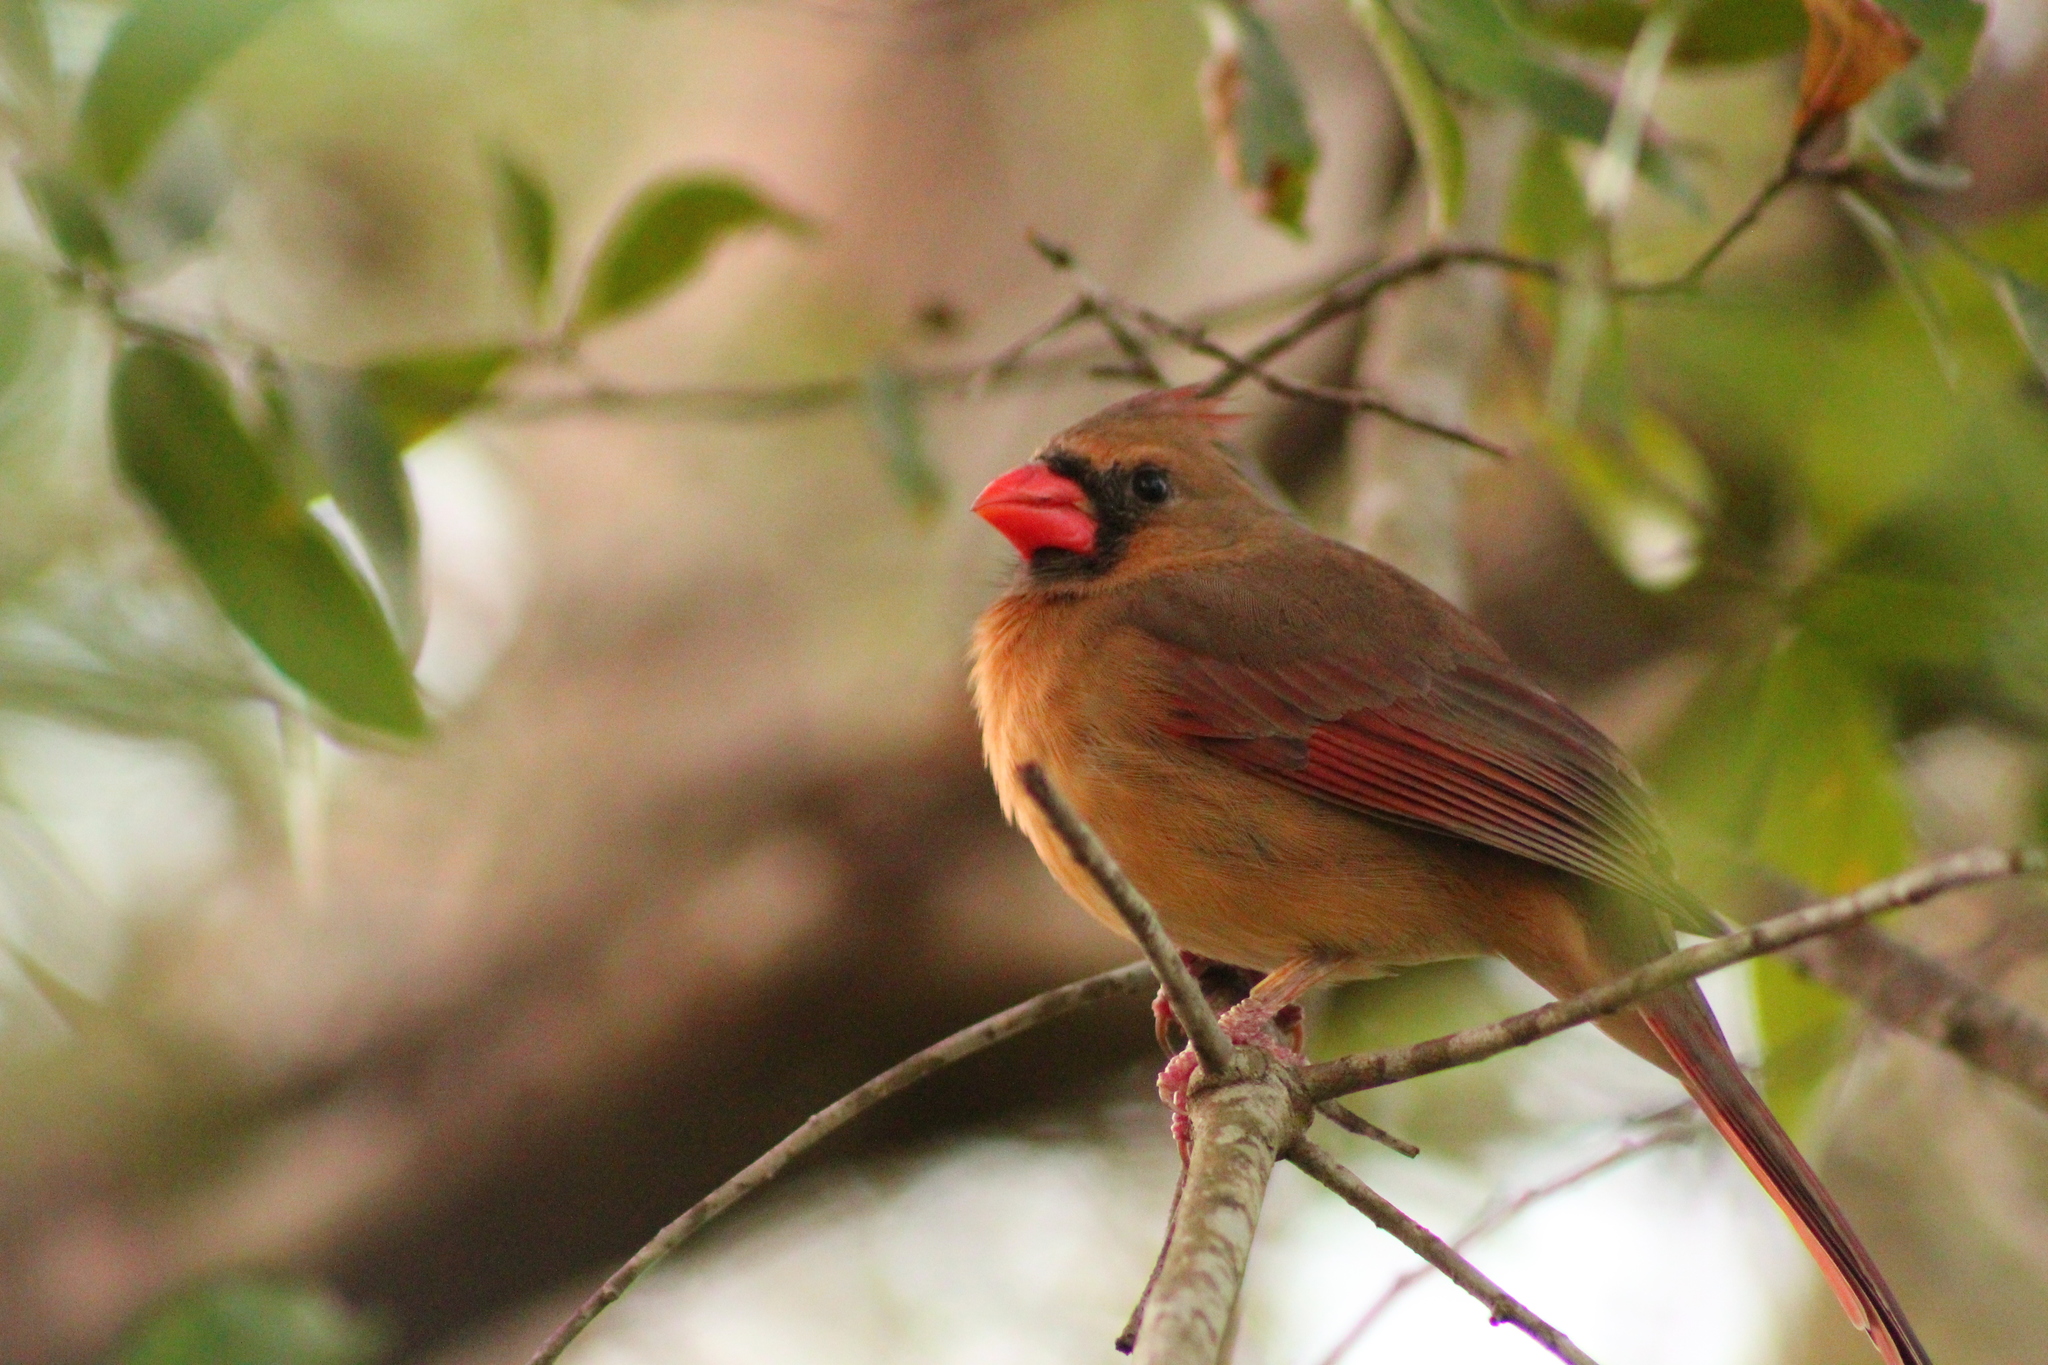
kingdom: Animalia
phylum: Chordata
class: Aves
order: Passeriformes
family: Cardinalidae
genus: Cardinalis
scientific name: Cardinalis cardinalis
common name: Northern cardinal
